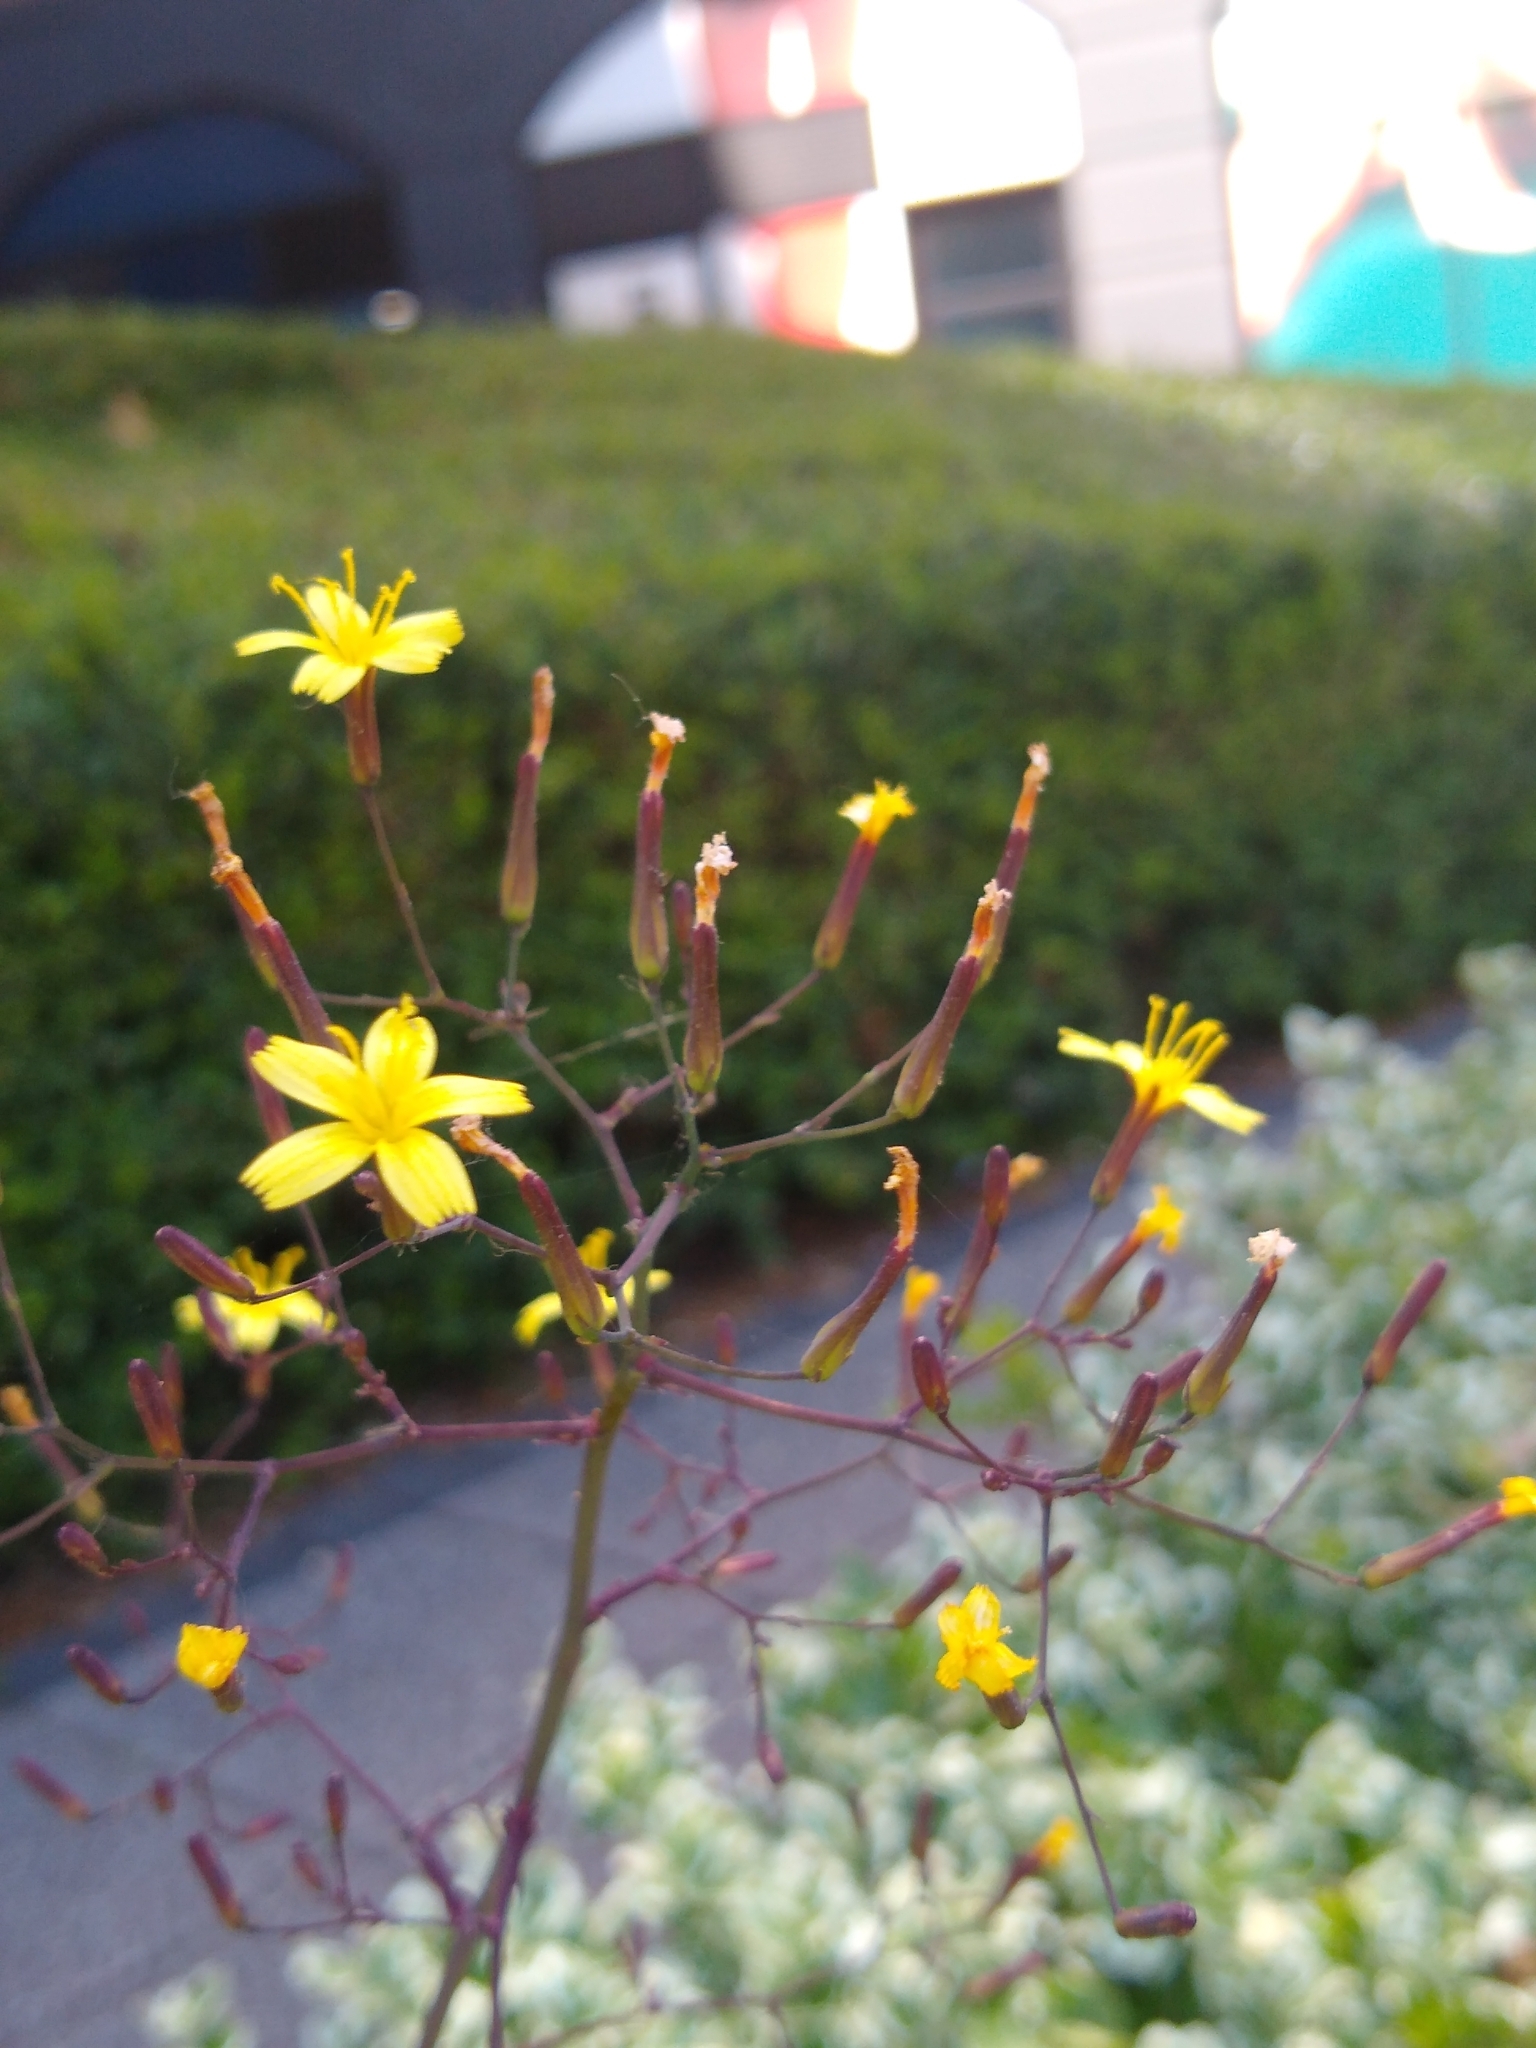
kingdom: Plantae
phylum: Tracheophyta
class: Magnoliopsida
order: Asterales
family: Asteraceae
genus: Mycelis
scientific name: Mycelis muralis
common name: Wall lettuce
